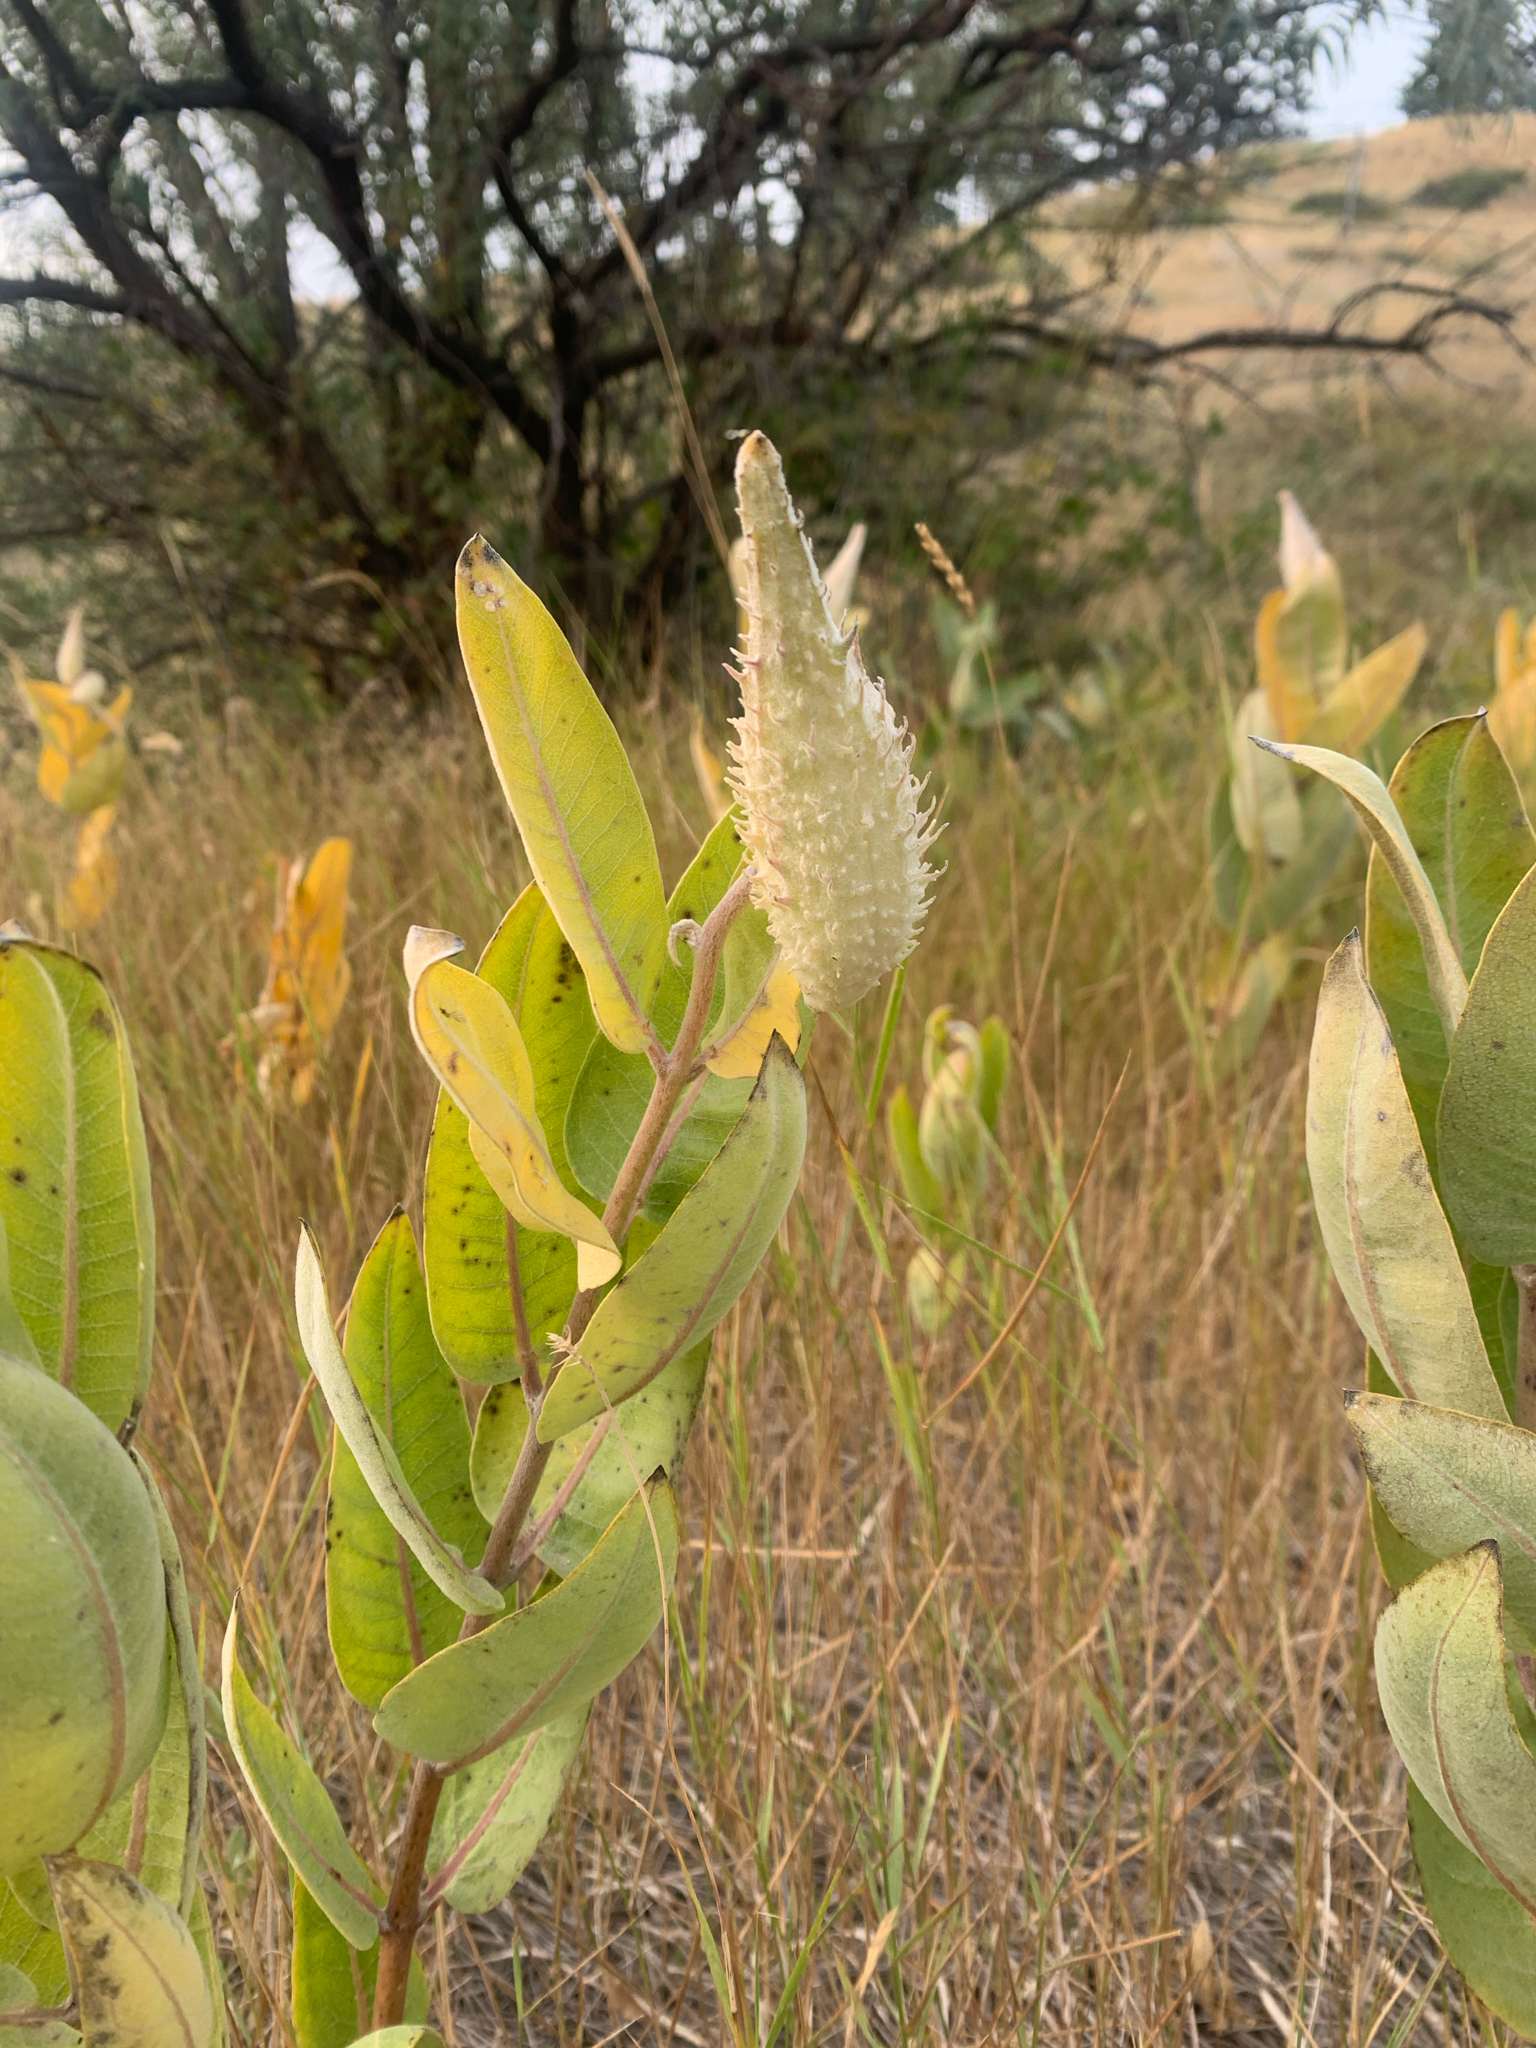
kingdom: Plantae
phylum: Tracheophyta
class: Magnoliopsida
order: Gentianales
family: Apocynaceae
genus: Asclepias
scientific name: Asclepias speciosa
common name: Showy milkweed
